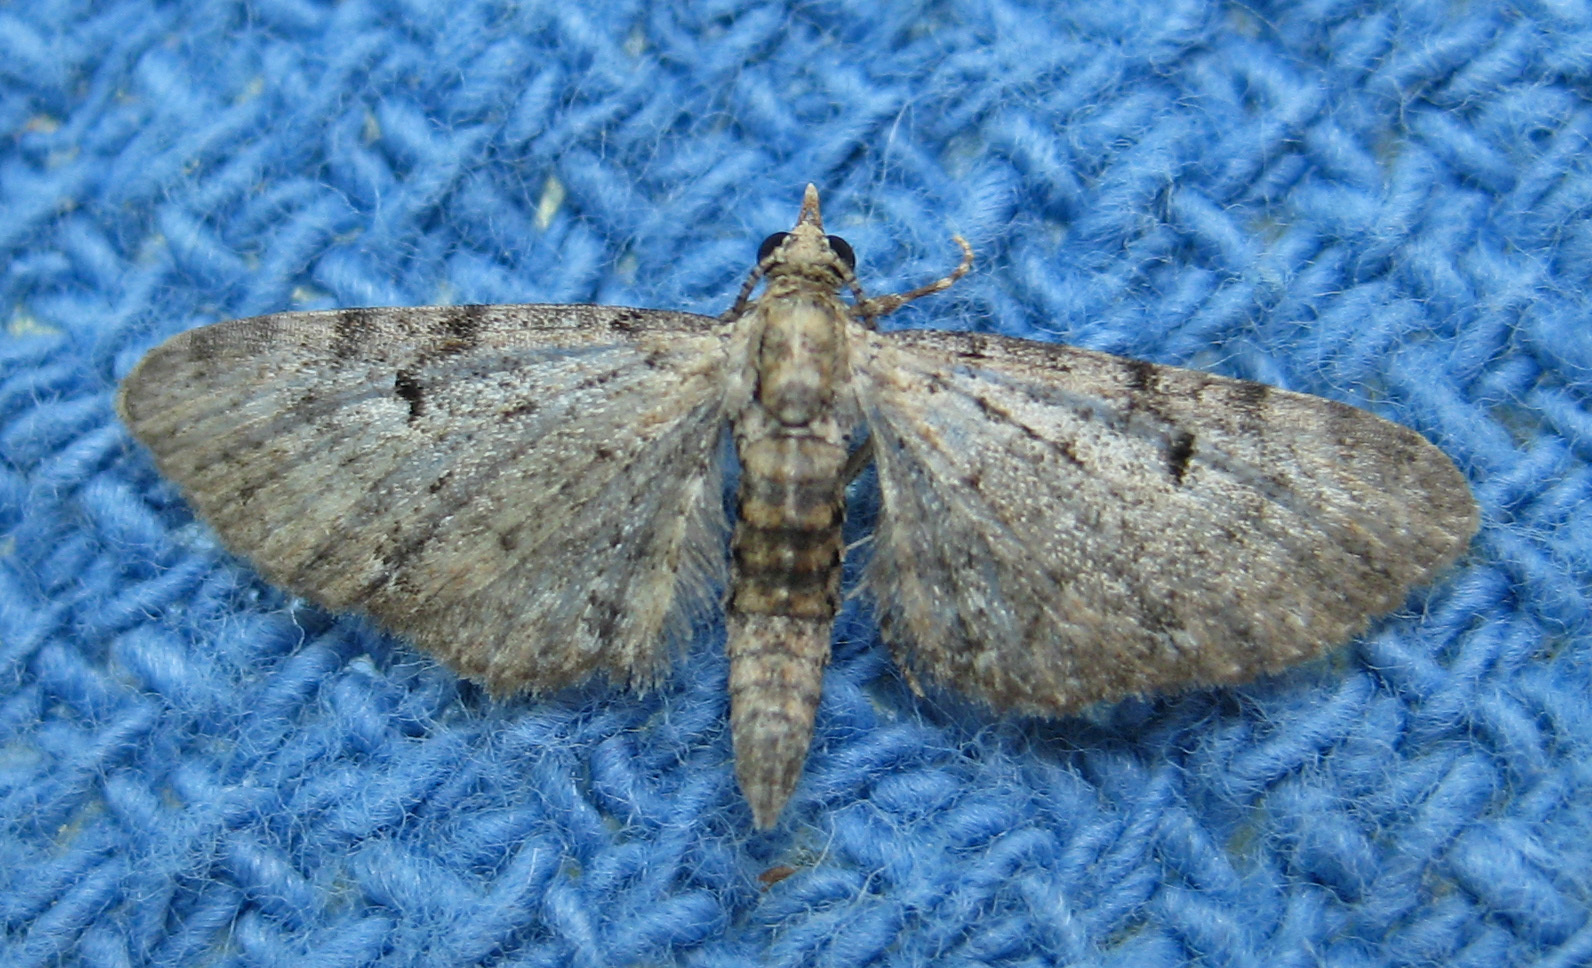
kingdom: Animalia
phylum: Arthropoda
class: Insecta
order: Lepidoptera
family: Geometridae
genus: Eupithecia
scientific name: Eupithecia miserulata
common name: Common eupithecia
